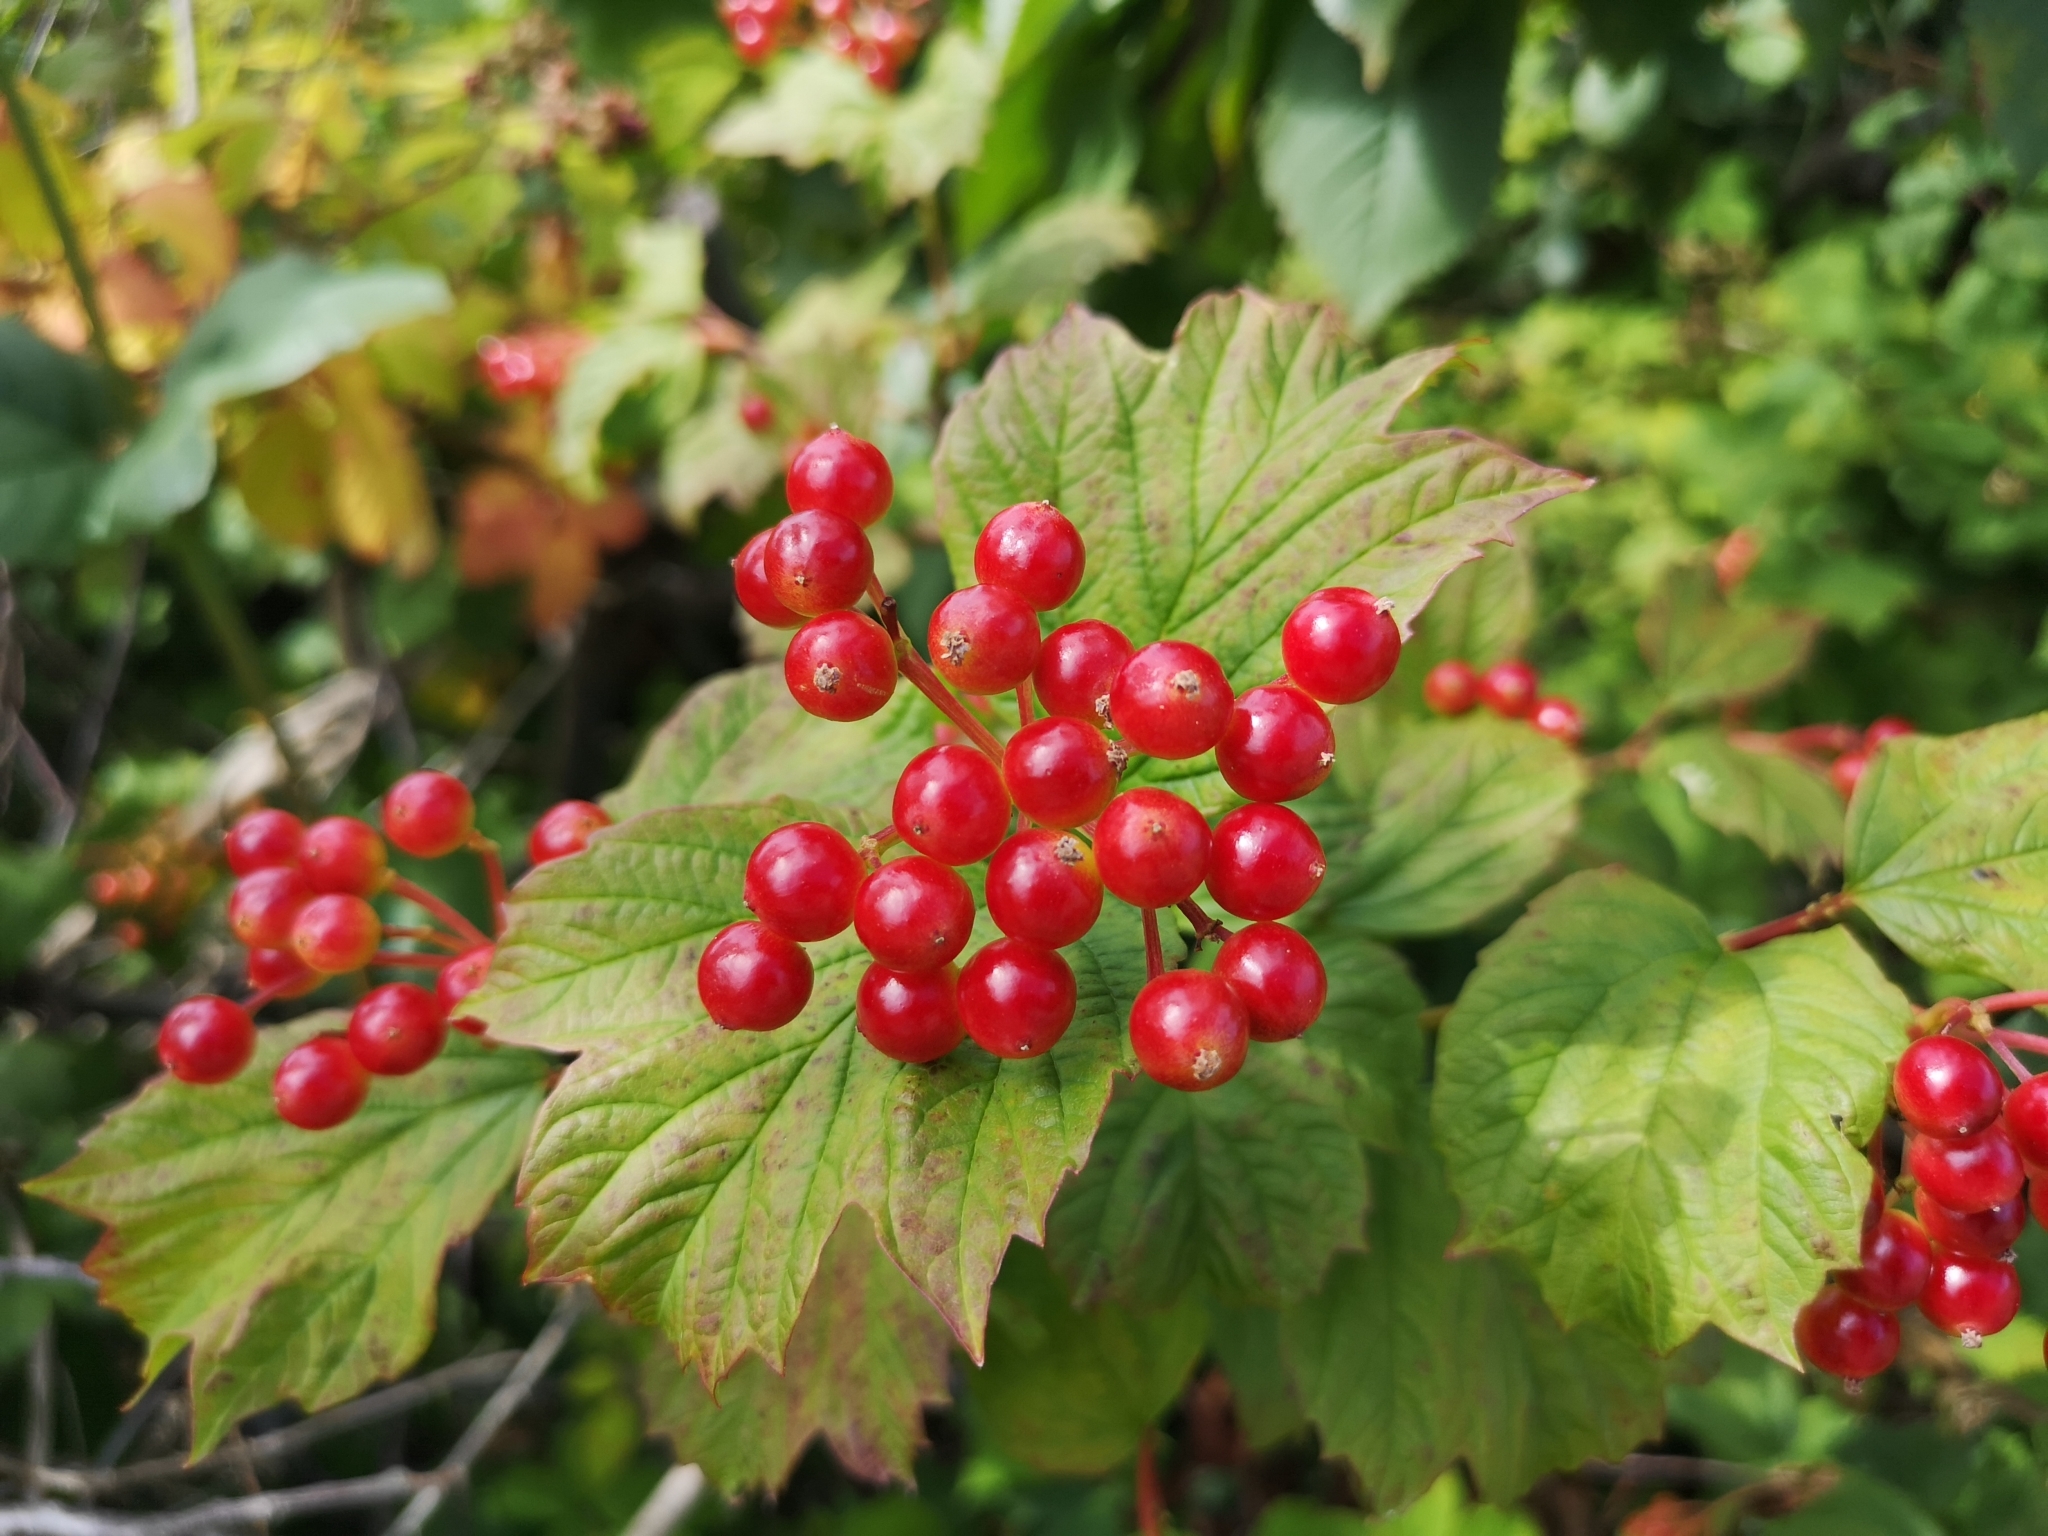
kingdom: Plantae
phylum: Tracheophyta
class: Magnoliopsida
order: Dipsacales
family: Viburnaceae
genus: Viburnum
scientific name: Viburnum opulus
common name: Guelder-rose
